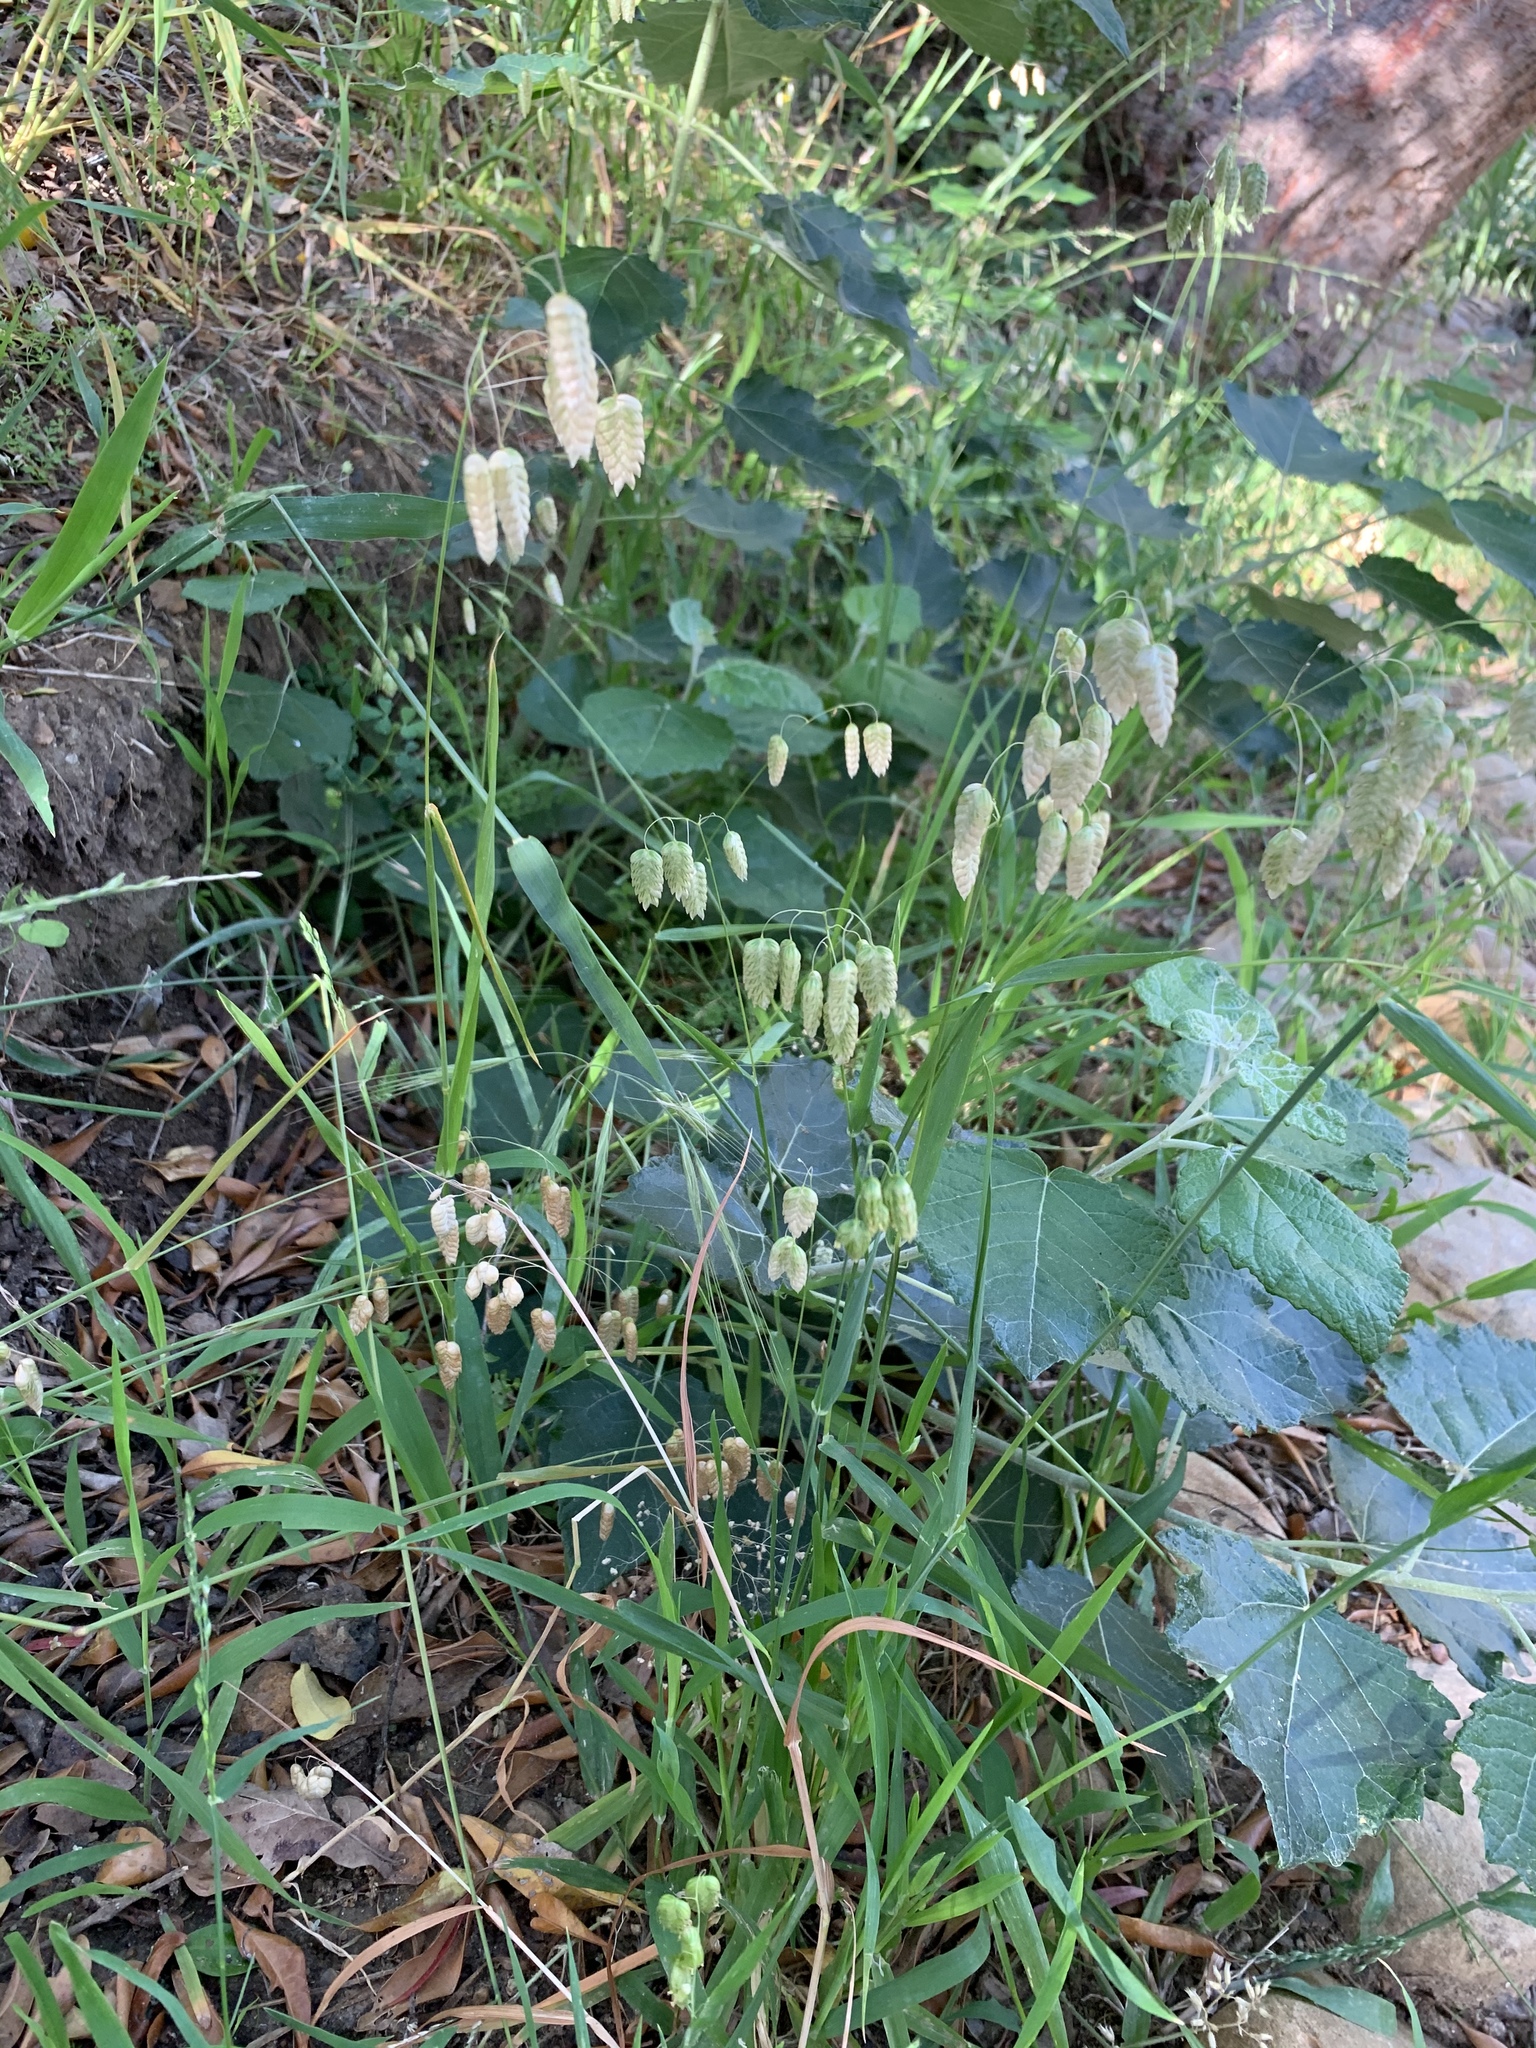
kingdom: Plantae
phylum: Tracheophyta
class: Liliopsida
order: Poales
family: Poaceae
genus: Briza
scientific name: Briza maxima
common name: Big quakinggrass
